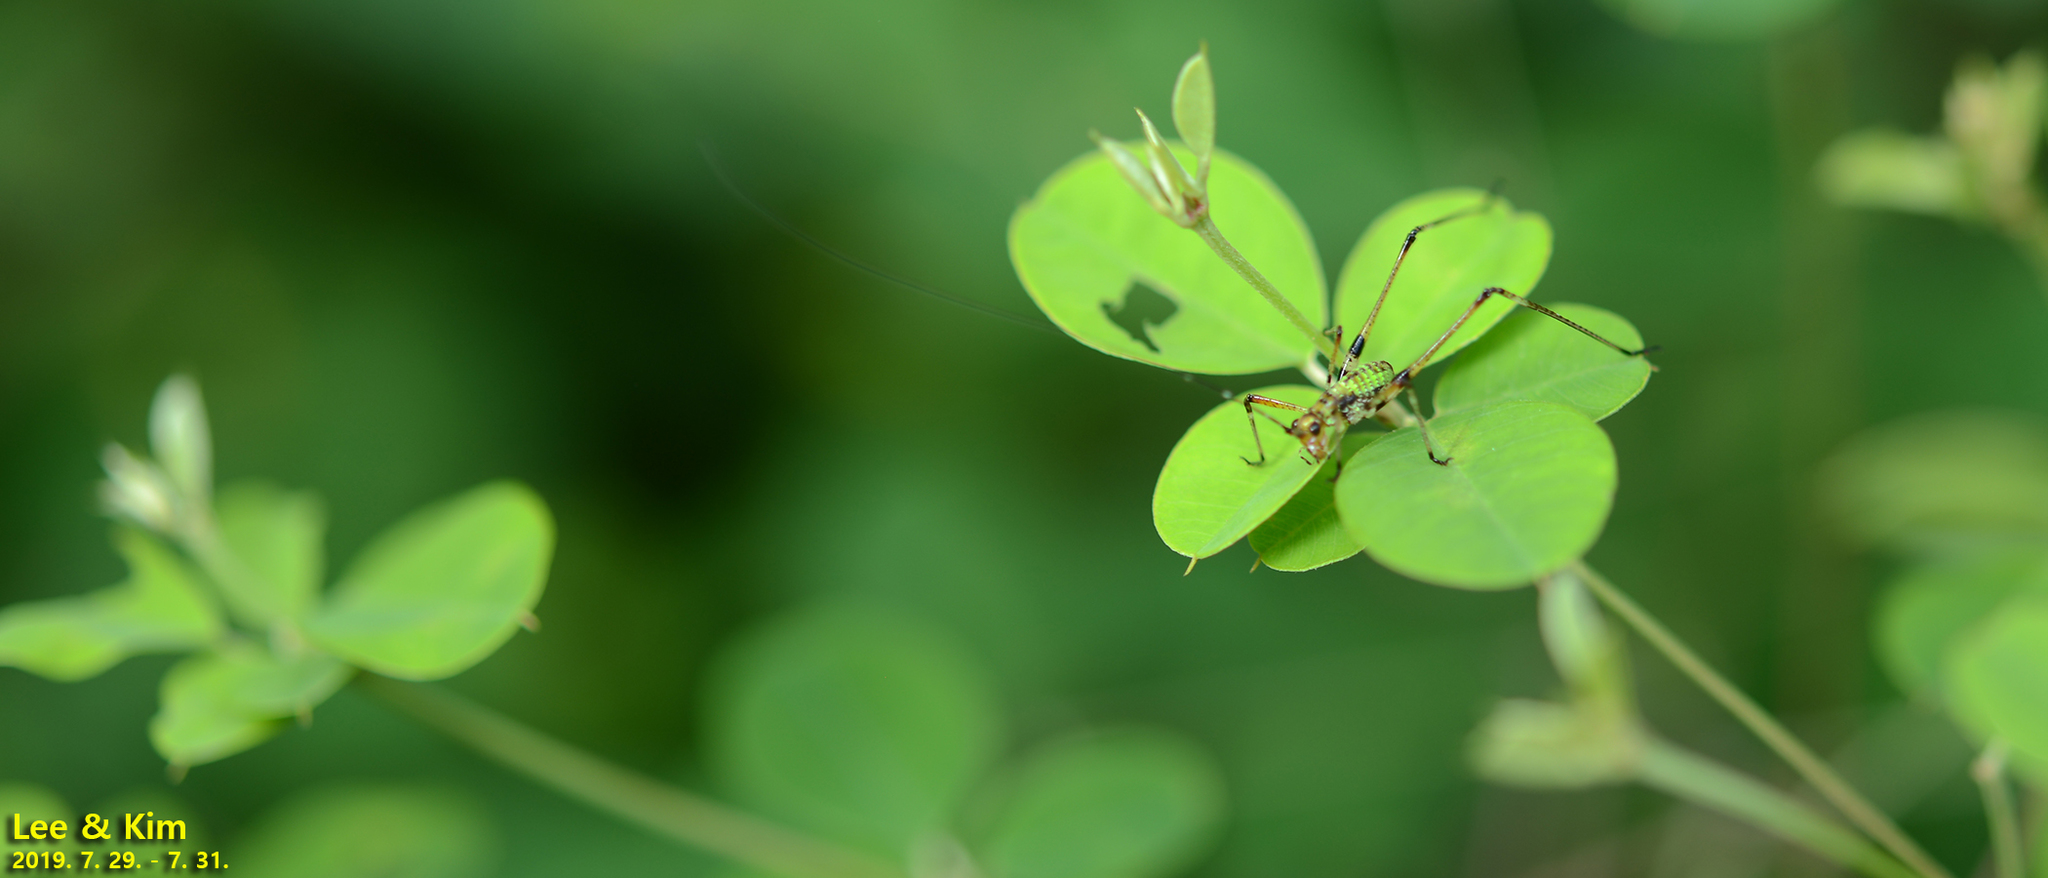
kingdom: Animalia
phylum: Arthropoda
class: Insecta
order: Orthoptera
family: Tettigoniidae
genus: Phaneroptera
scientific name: Phaneroptera nigroantennata
